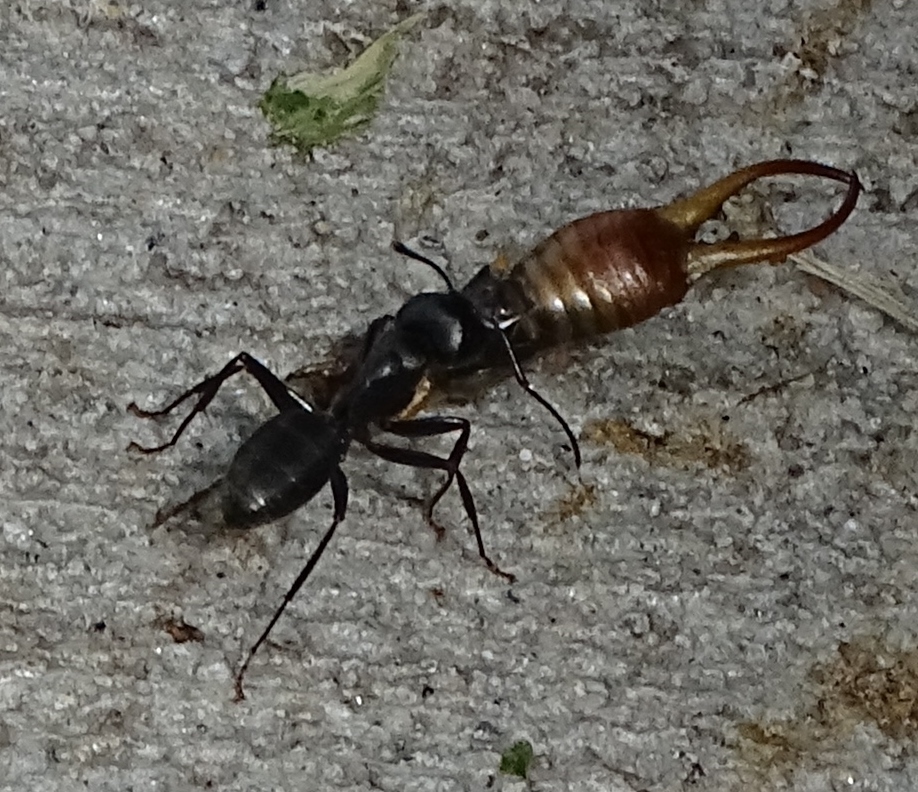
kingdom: Animalia
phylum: Arthropoda
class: Insecta
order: Dermaptera
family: Forficulidae
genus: Forficula
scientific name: Forficula
